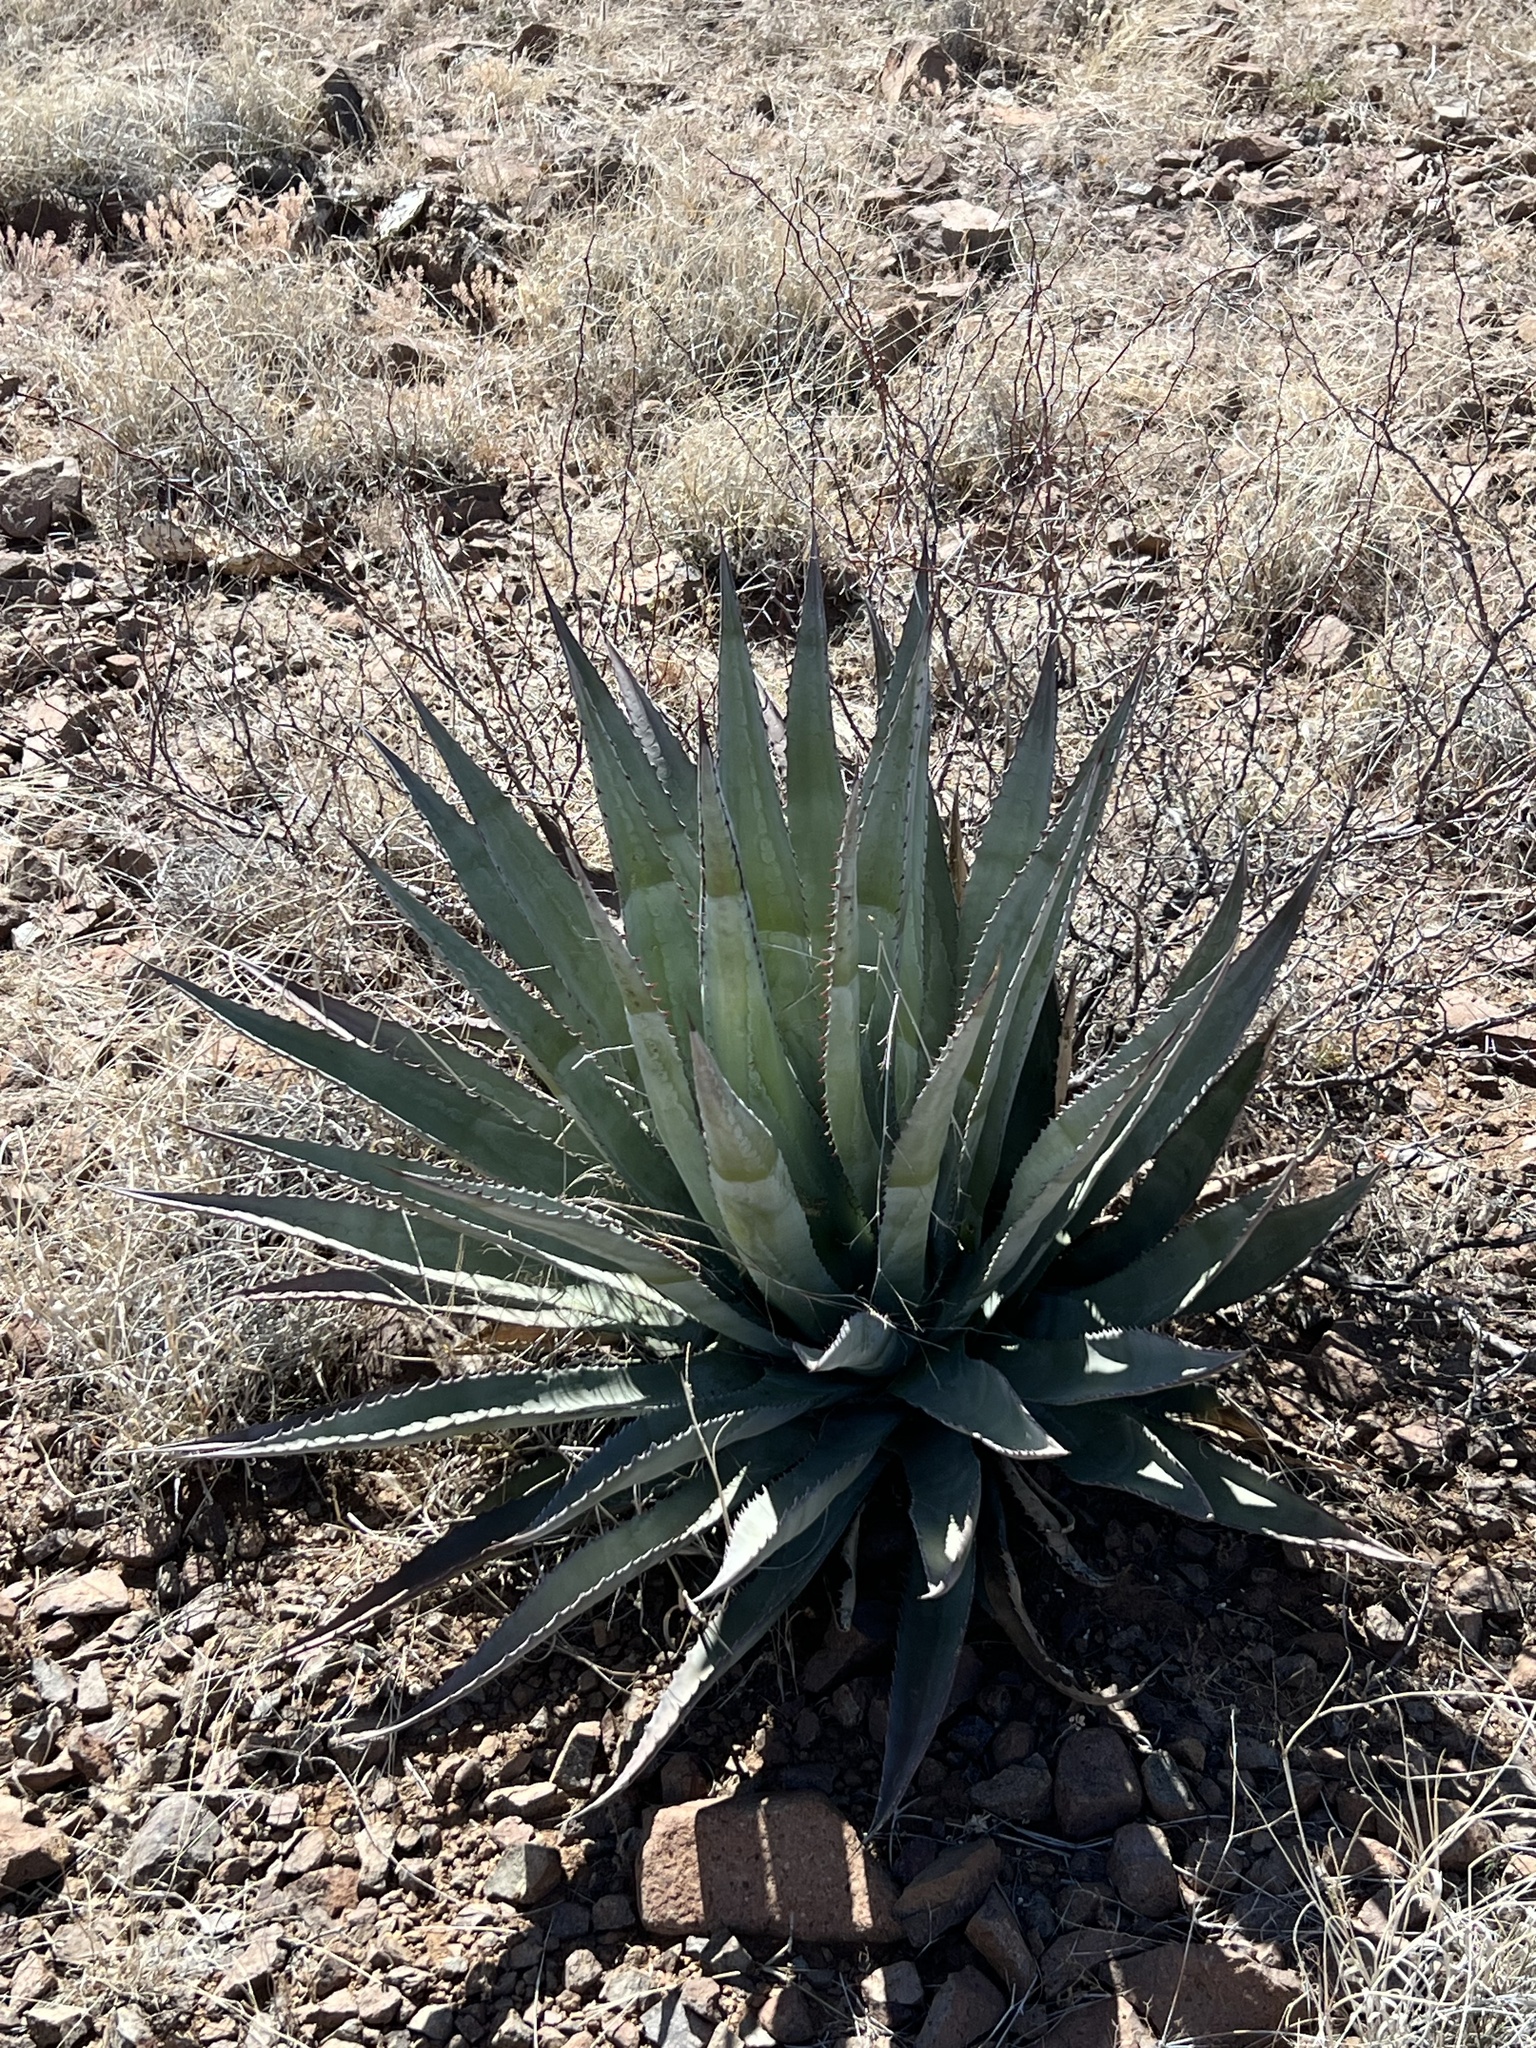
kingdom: Plantae
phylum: Tracheophyta
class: Liliopsida
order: Asparagales
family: Asparagaceae
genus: Agave
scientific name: Agave palmeri
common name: Palmer agave
